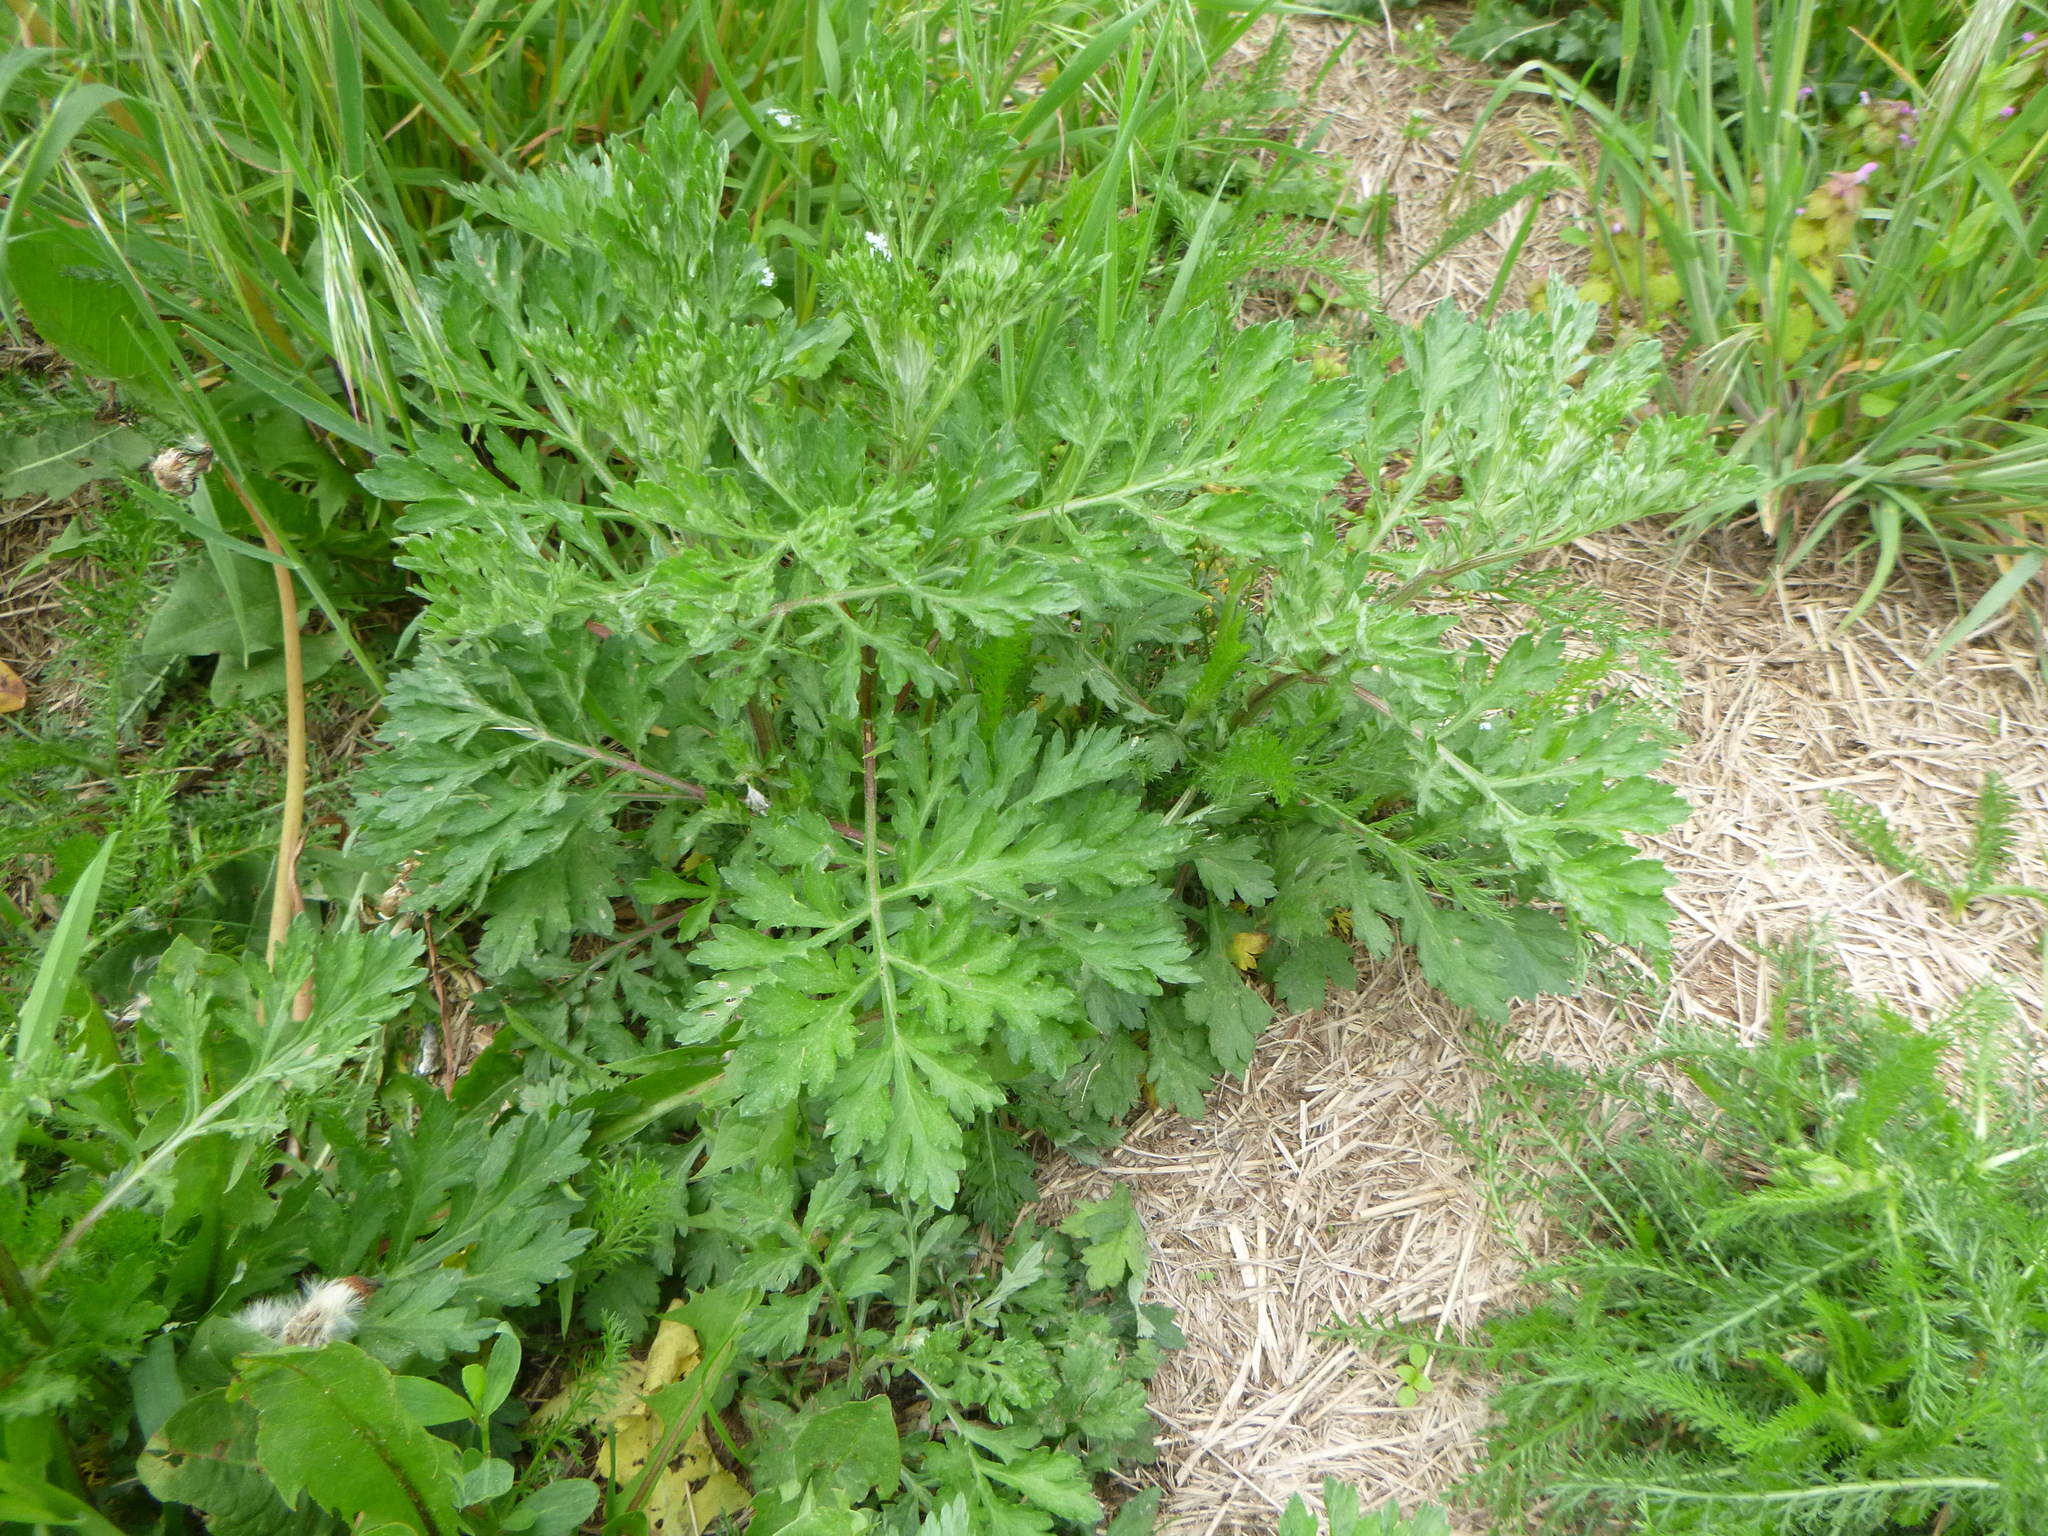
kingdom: Plantae
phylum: Tracheophyta
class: Magnoliopsida
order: Asterales
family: Asteraceae
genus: Artemisia
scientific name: Artemisia vulgaris
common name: Mugwort
